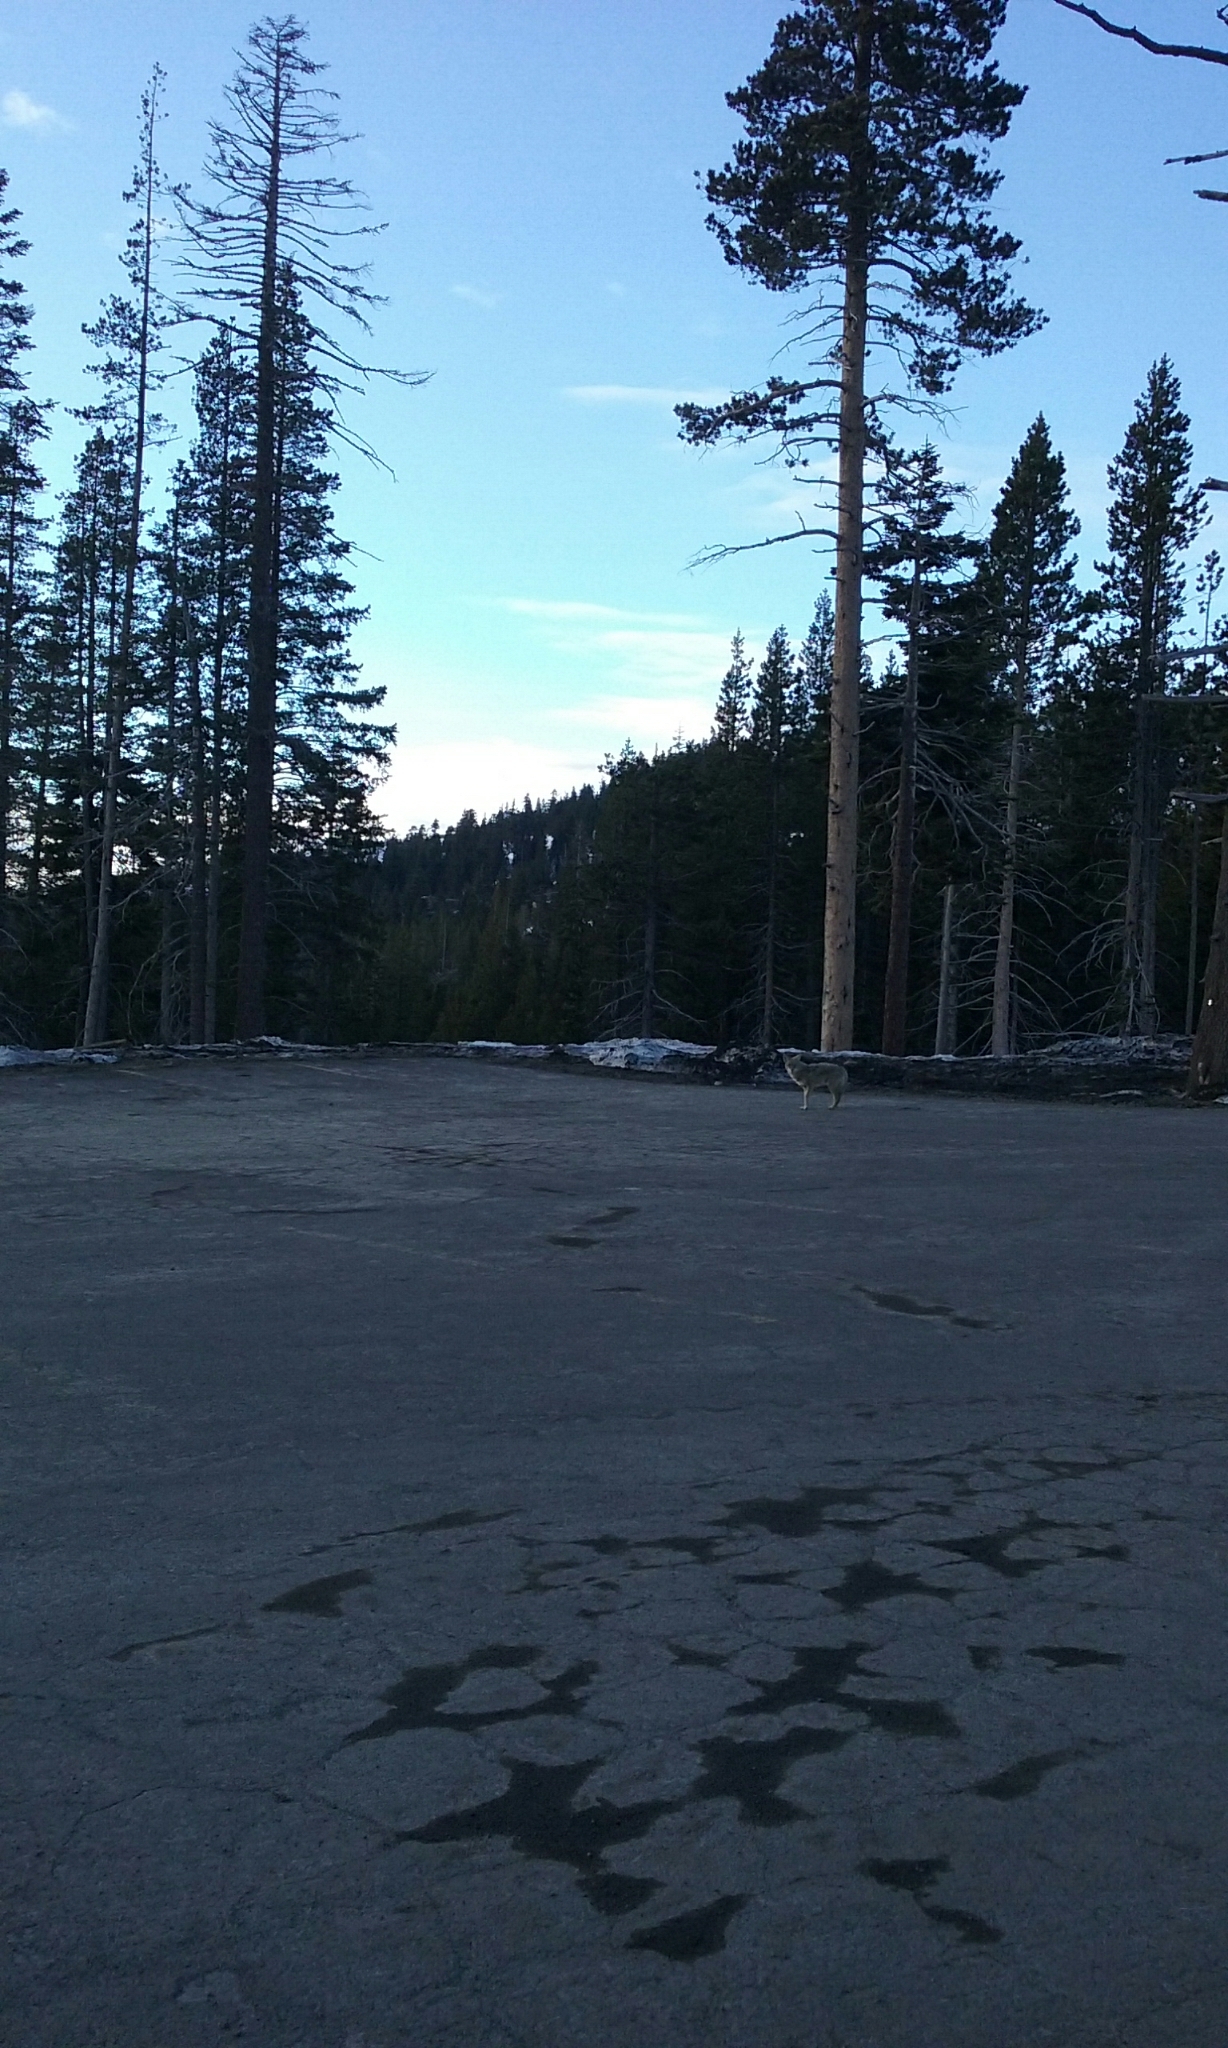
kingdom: Animalia
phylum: Chordata
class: Mammalia
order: Carnivora
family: Canidae
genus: Canis
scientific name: Canis latrans
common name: Coyote
